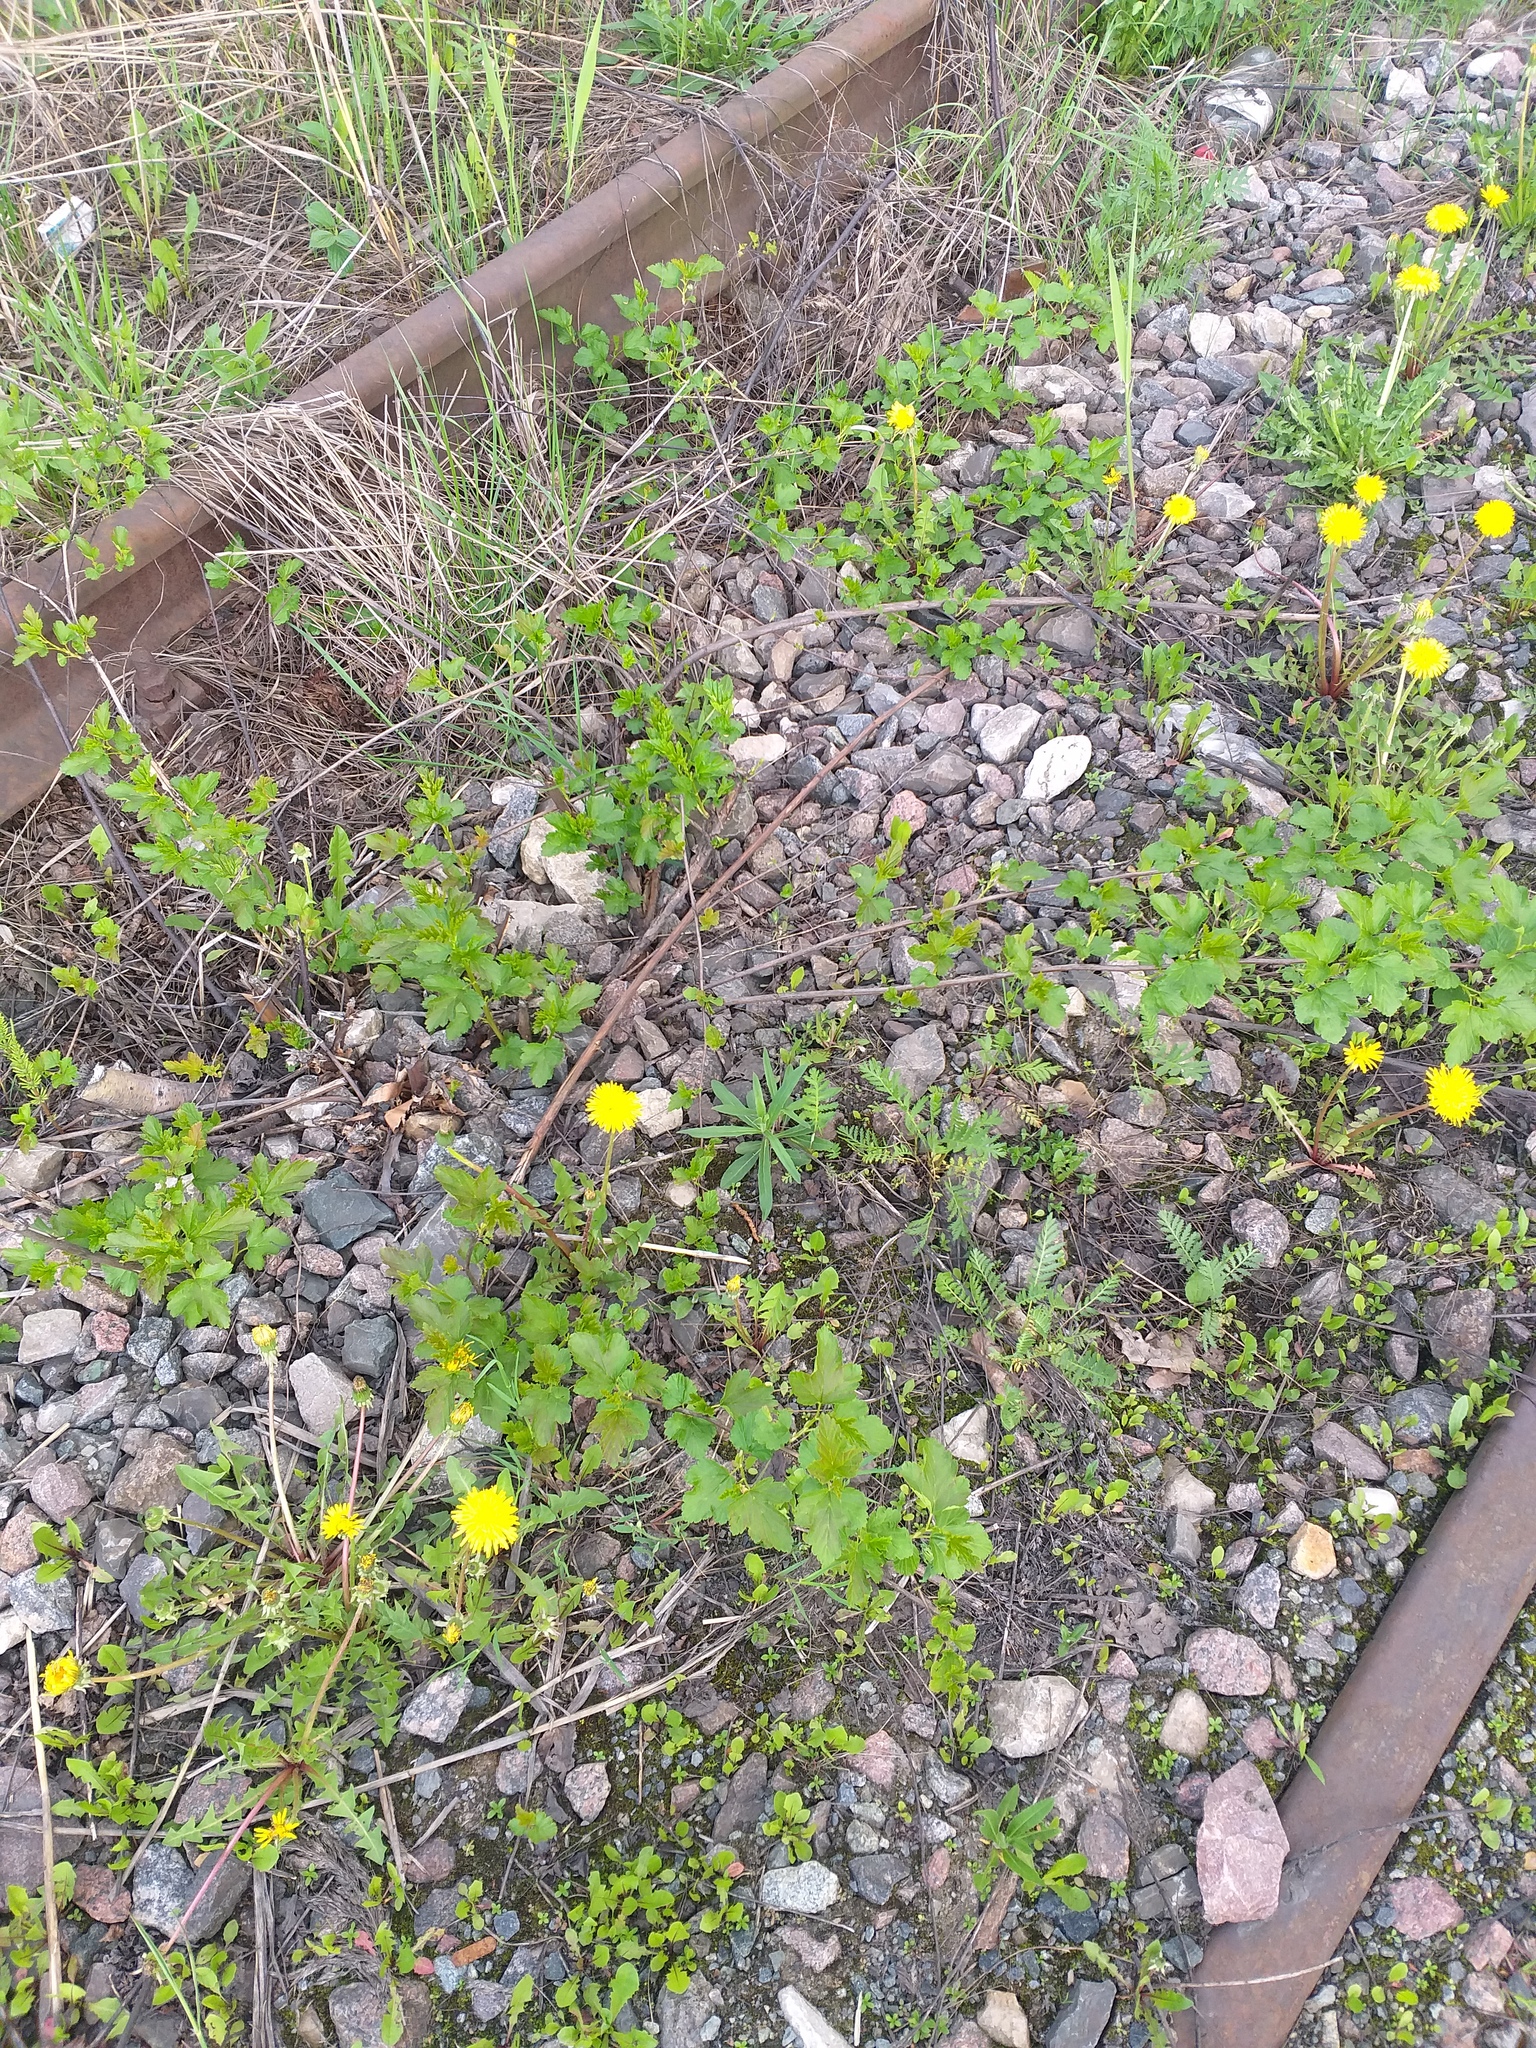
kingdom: Plantae
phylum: Tracheophyta
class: Magnoliopsida
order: Rosales
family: Rosaceae
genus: Physocarpus
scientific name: Physocarpus opulifolius
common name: Ninebark
